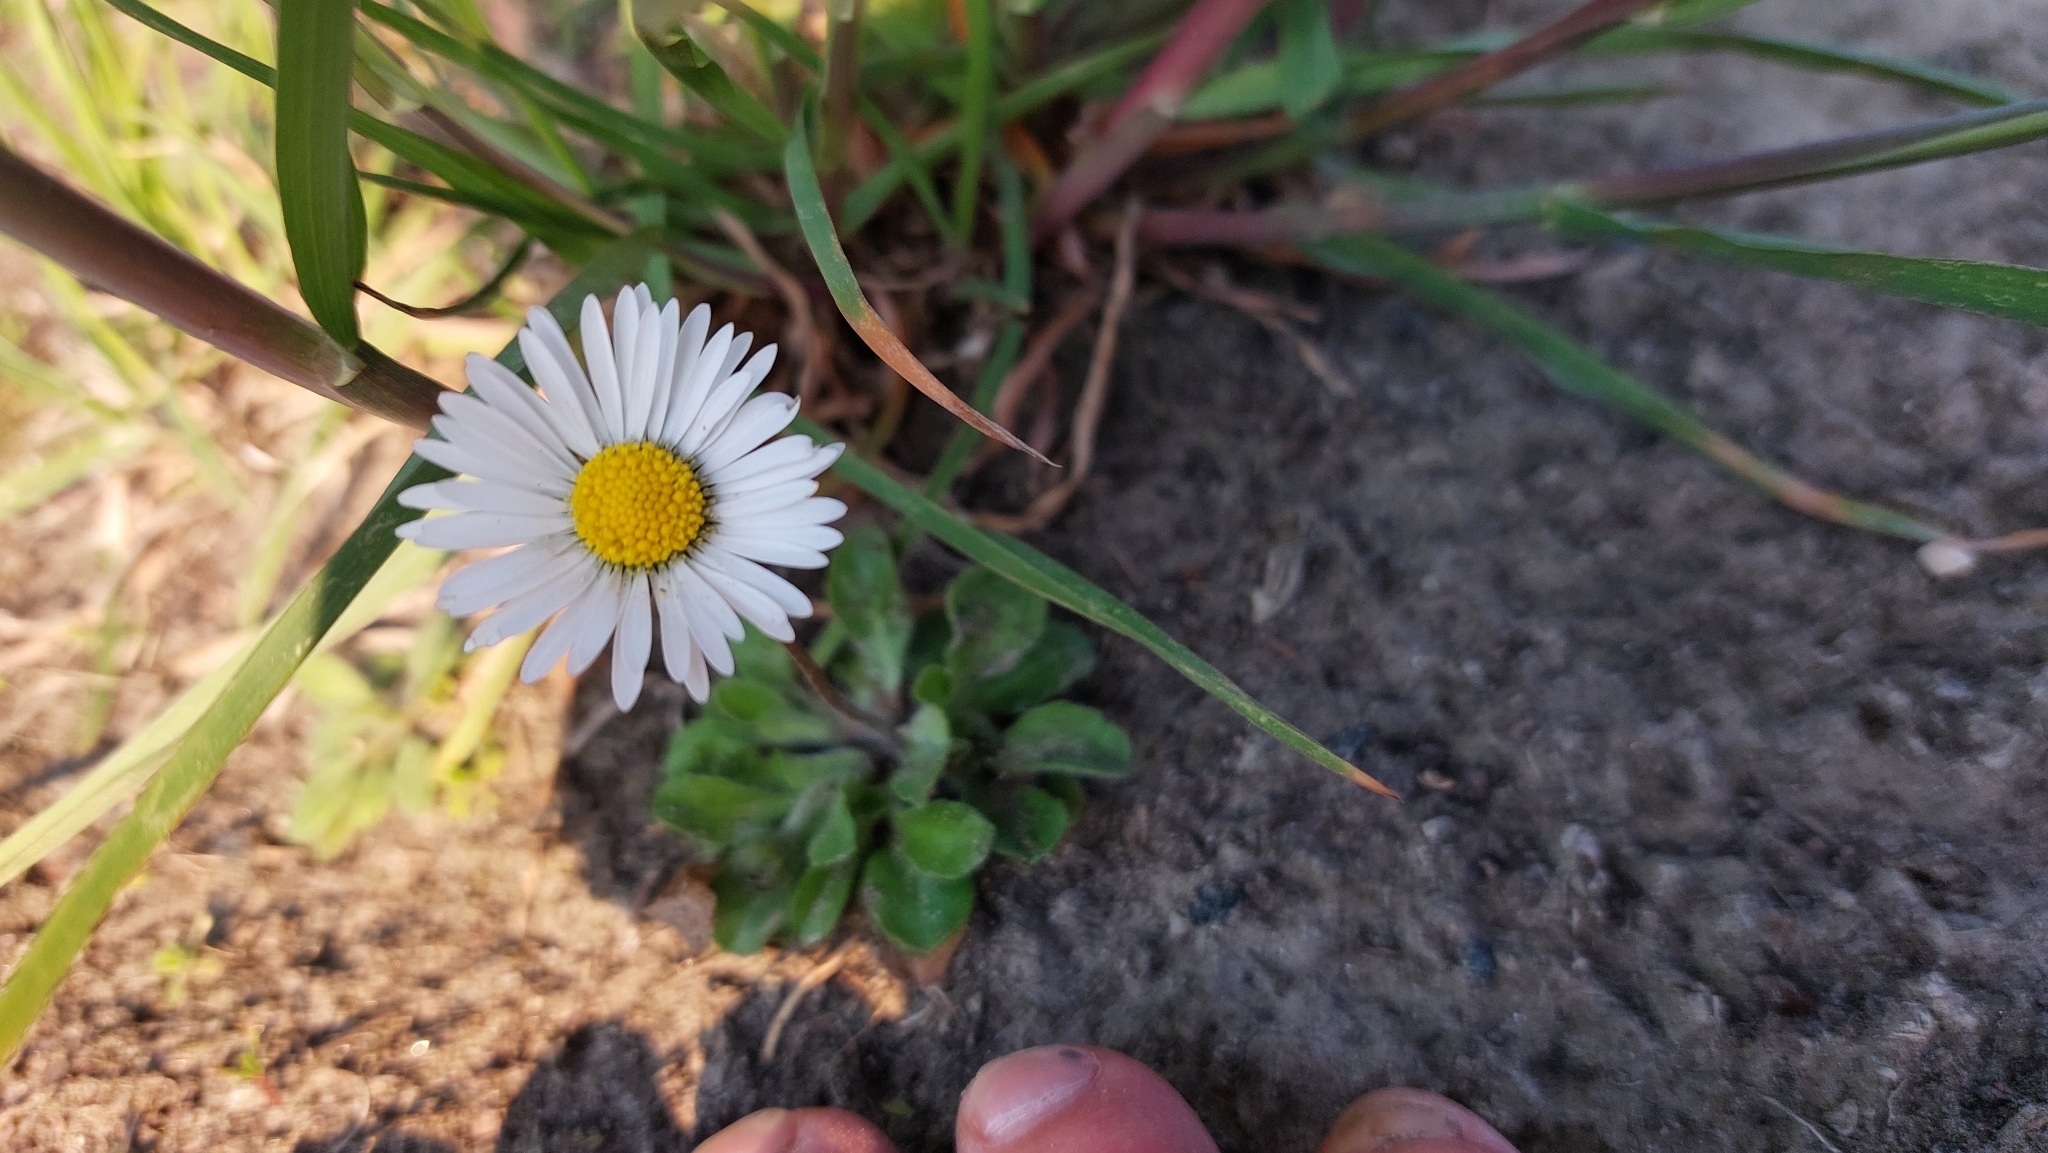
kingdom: Plantae
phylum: Tracheophyta
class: Magnoliopsida
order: Asterales
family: Asteraceae
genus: Bellis
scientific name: Bellis perennis
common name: Lawndaisy
